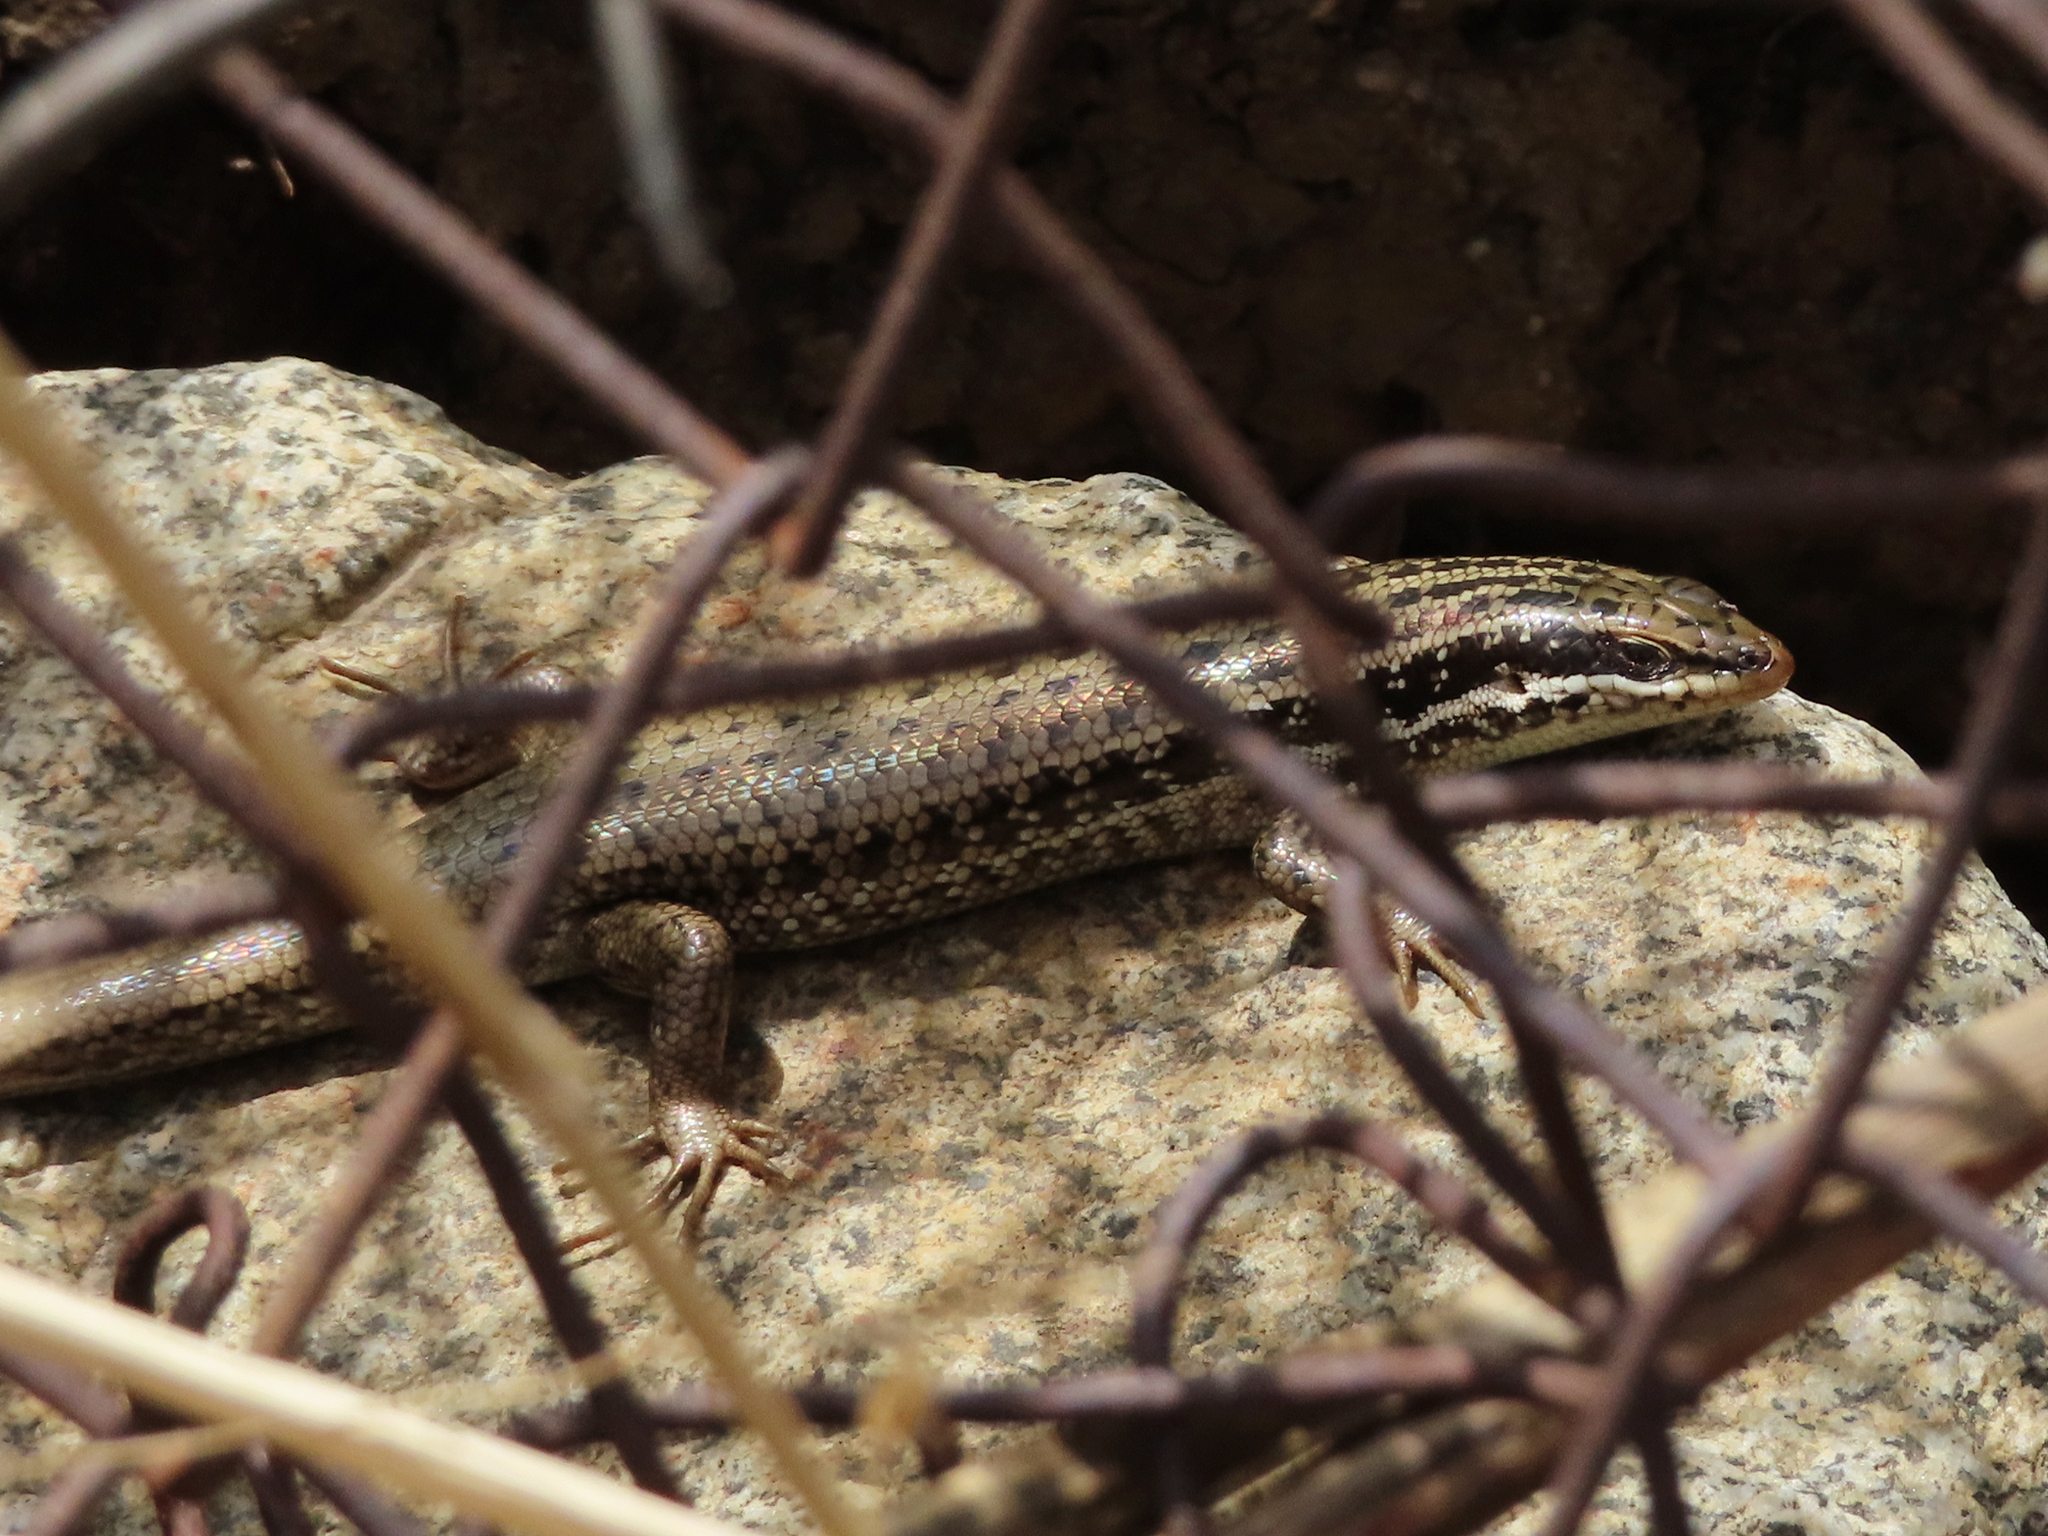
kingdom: Animalia
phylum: Chordata
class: Squamata
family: Scincidae
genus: Heremites
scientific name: Heremites septemtaeniatus
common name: Golden grass mabuya
